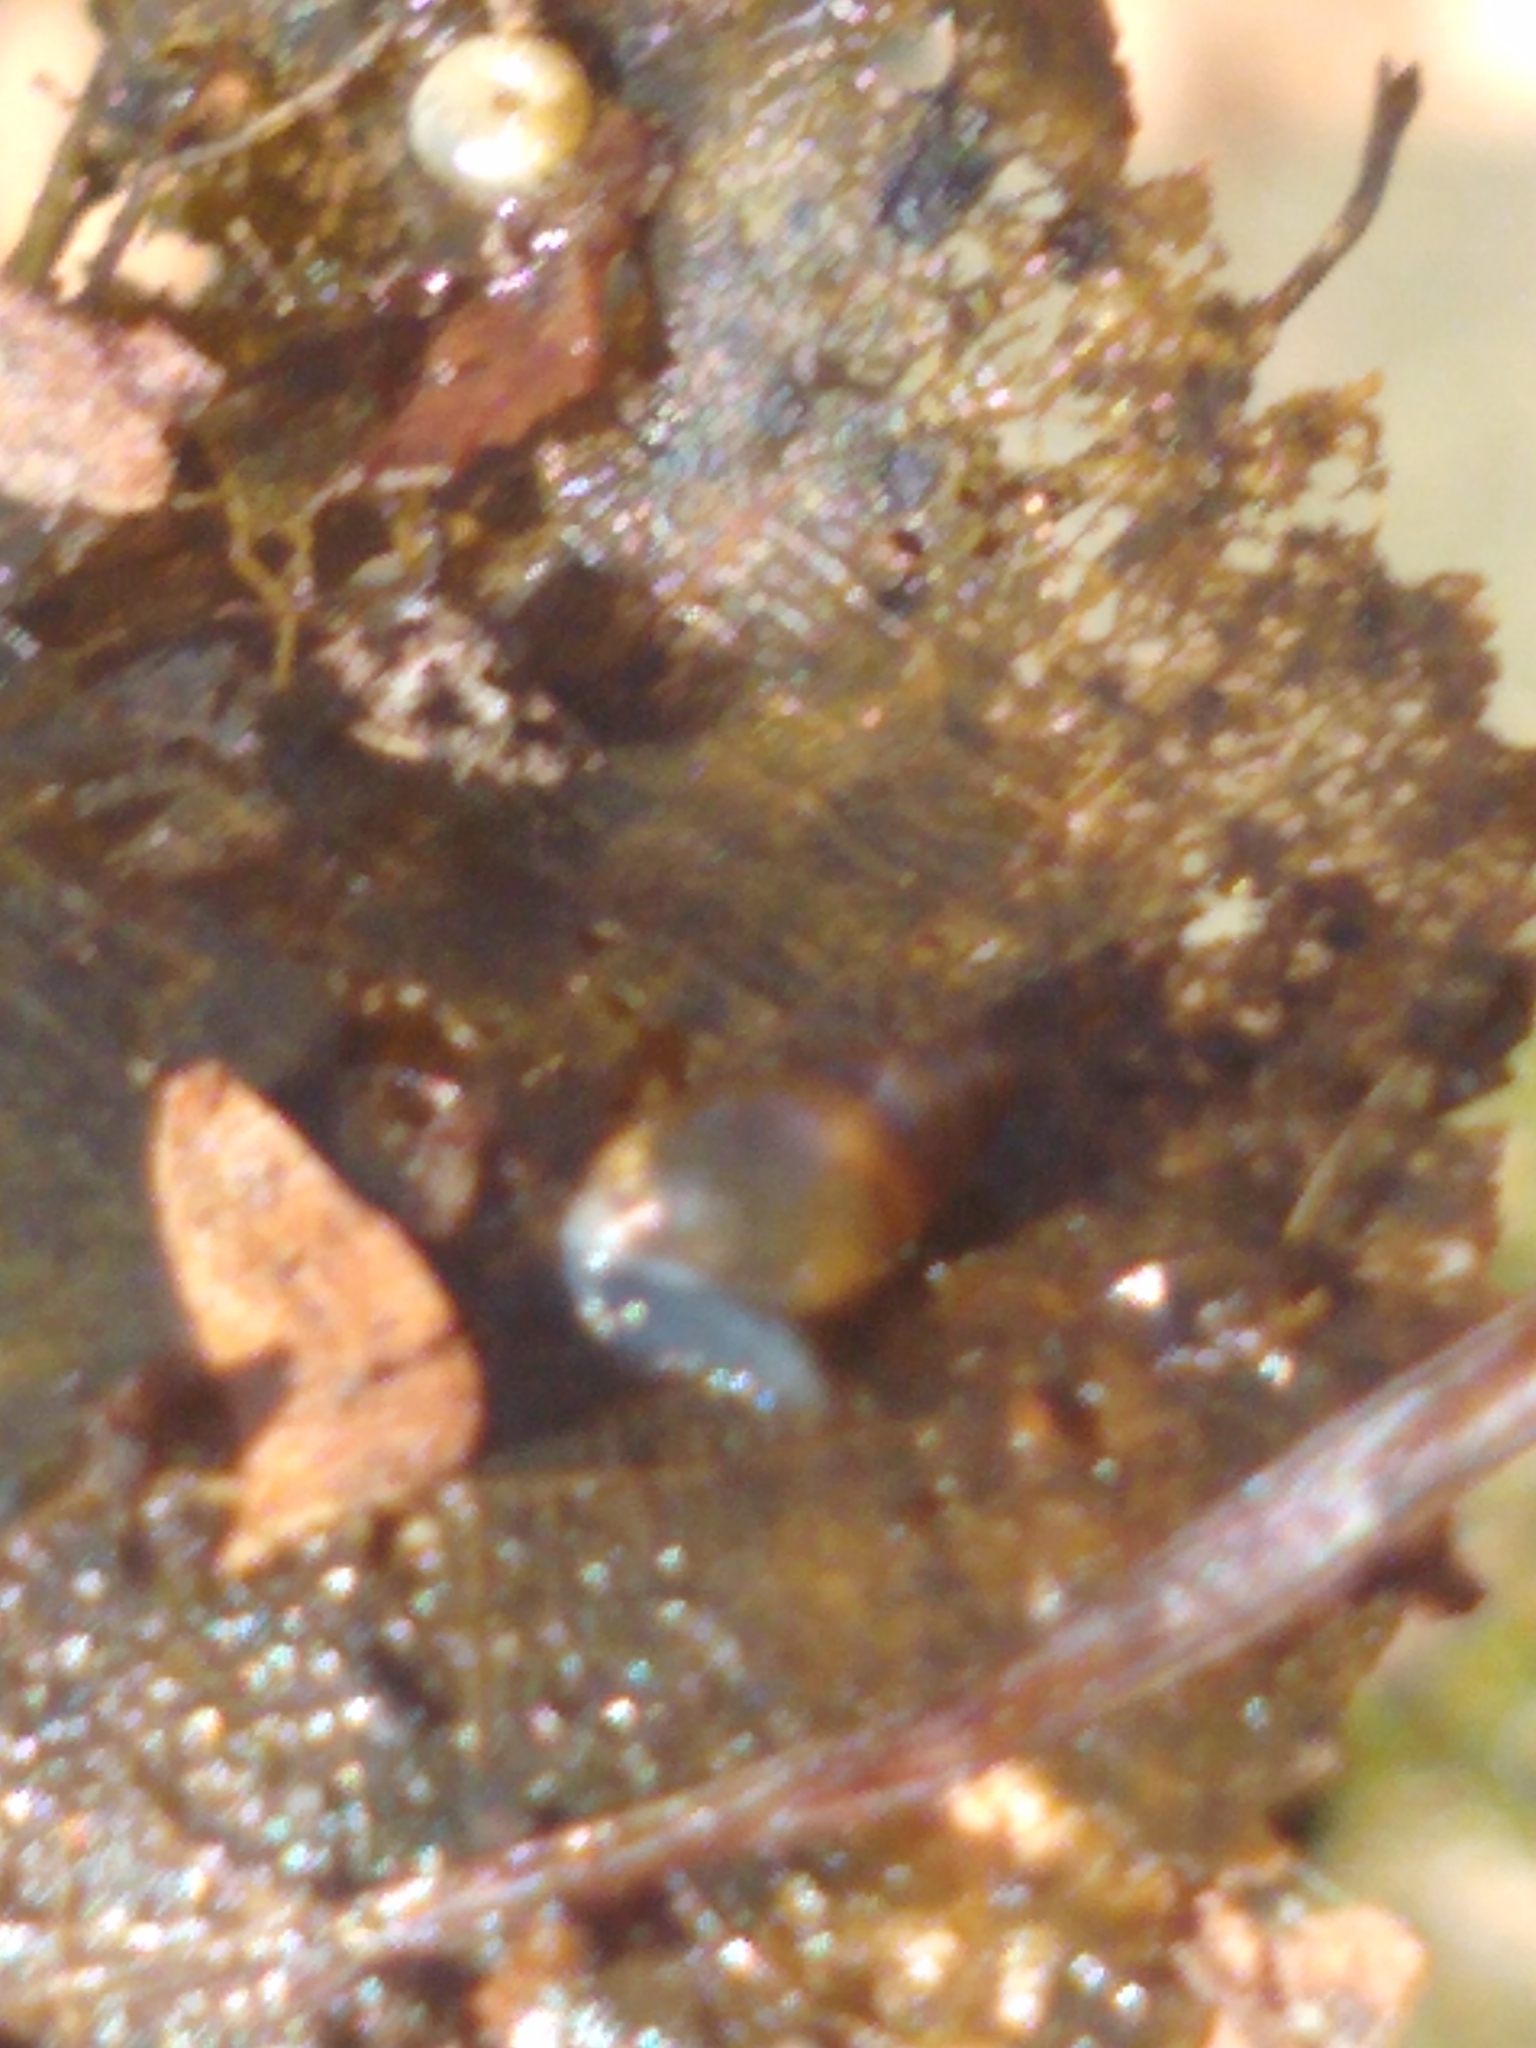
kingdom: Animalia
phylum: Mollusca
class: Gastropoda
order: Stylommatophora
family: Cochlicopidae
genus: Cochlicopa
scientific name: Cochlicopa lubrica
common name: Glossy pillar snail
